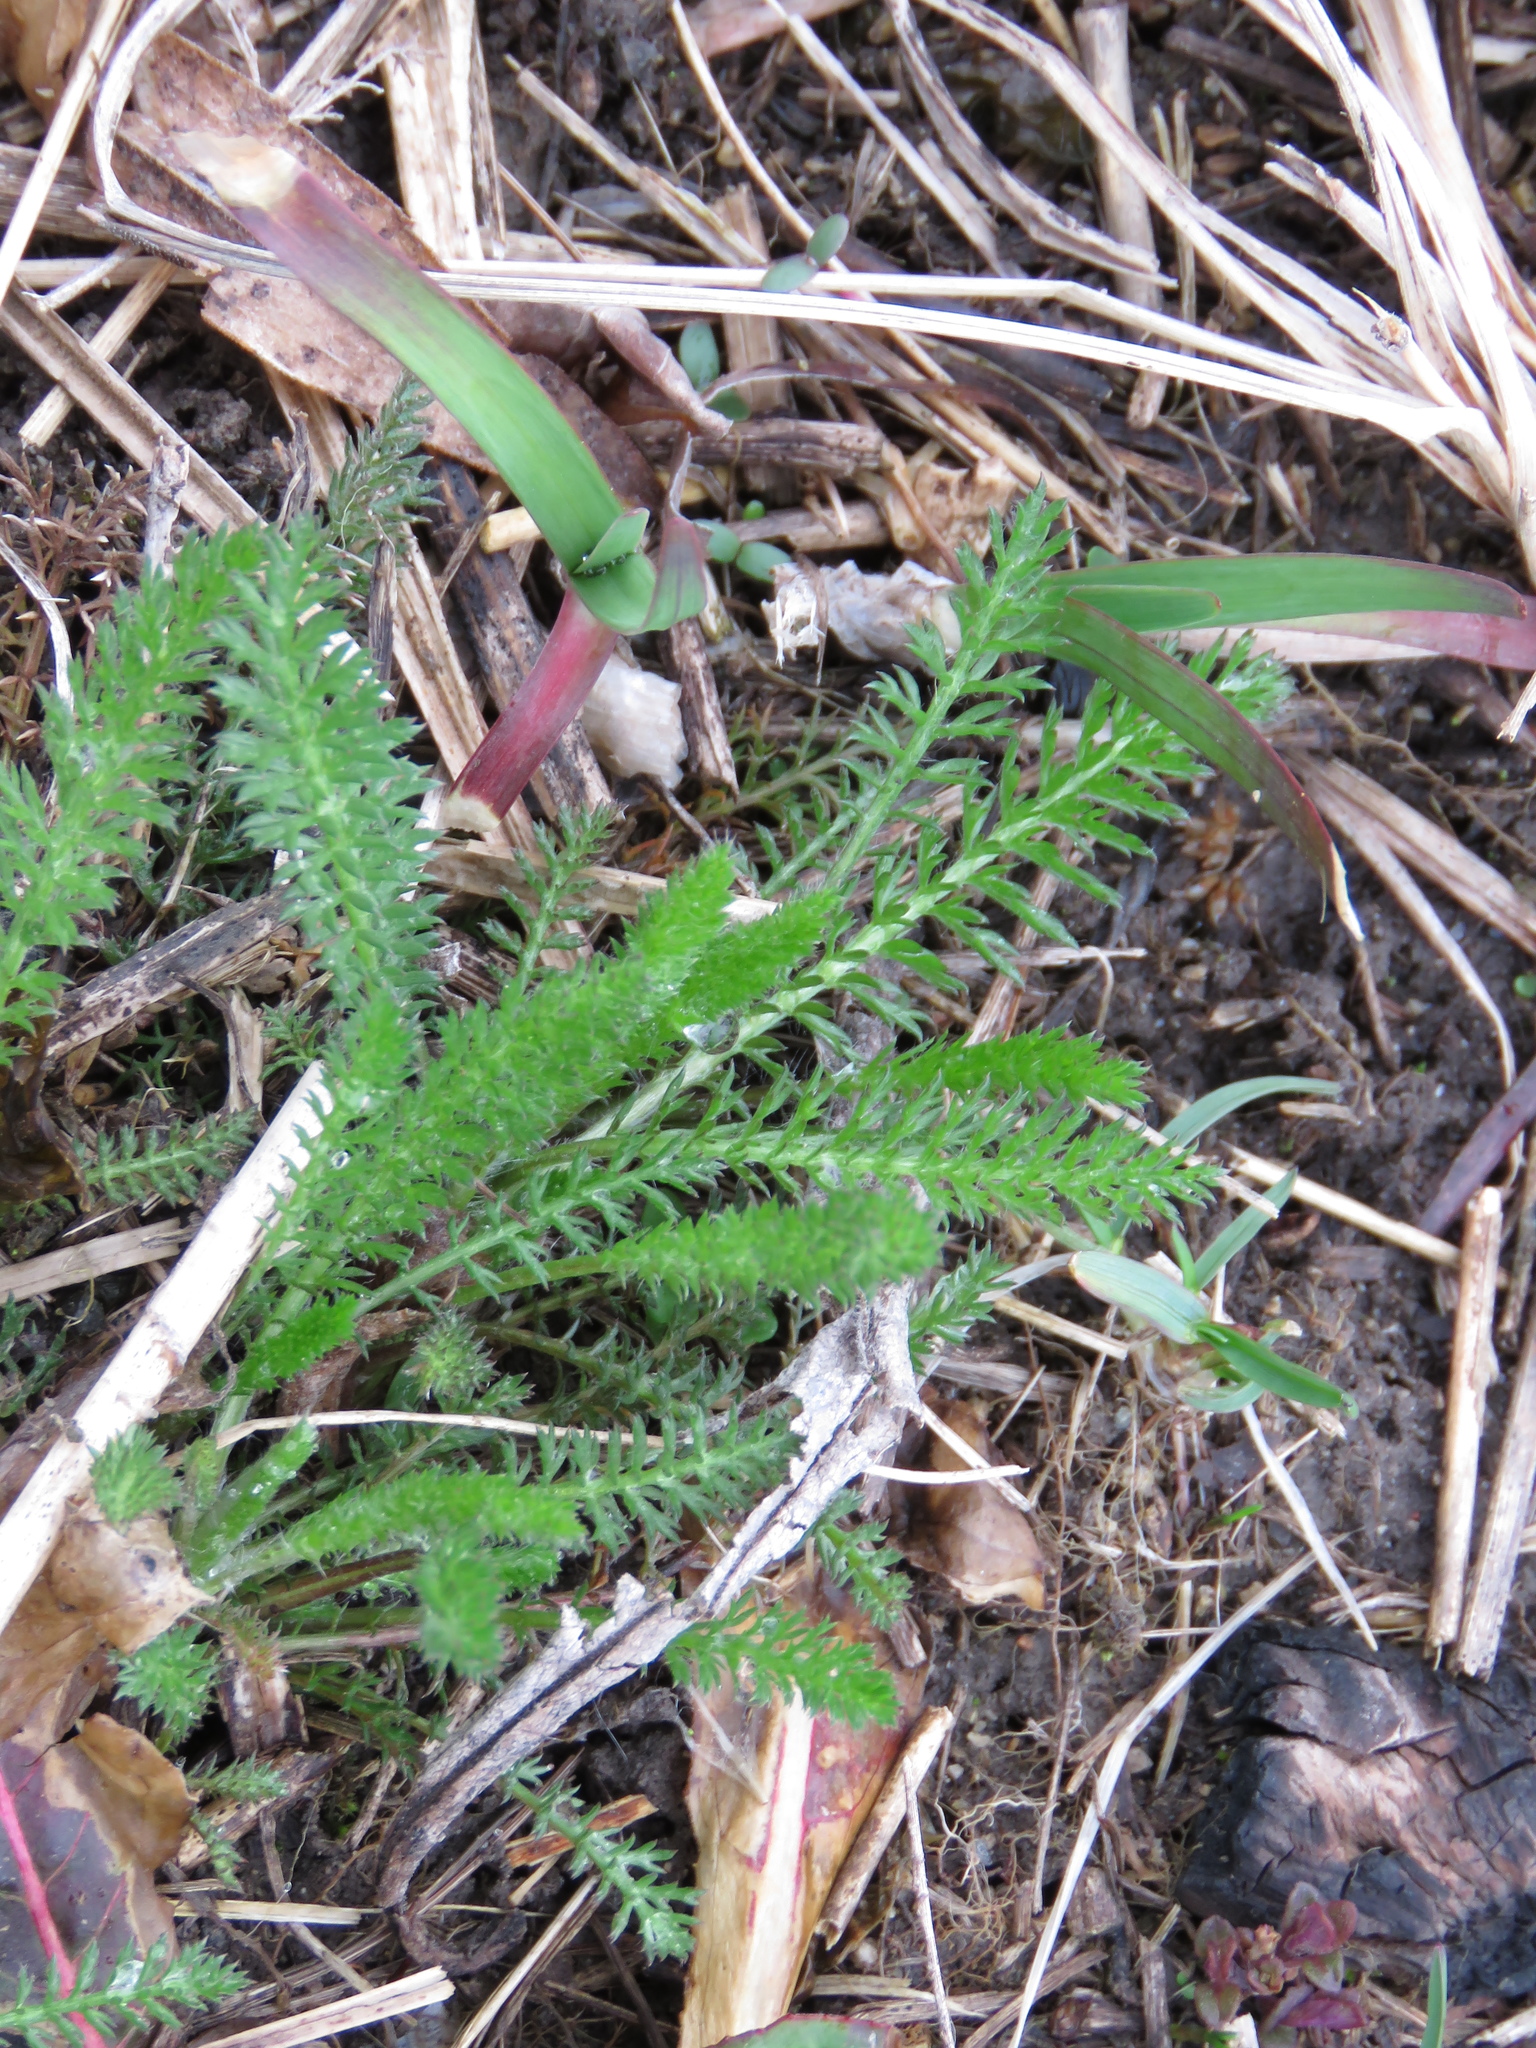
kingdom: Plantae
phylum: Tracheophyta
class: Magnoliopsida
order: Asterales
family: Asteraceae
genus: Achillea
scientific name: Achillea millefolium
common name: Yarrow
